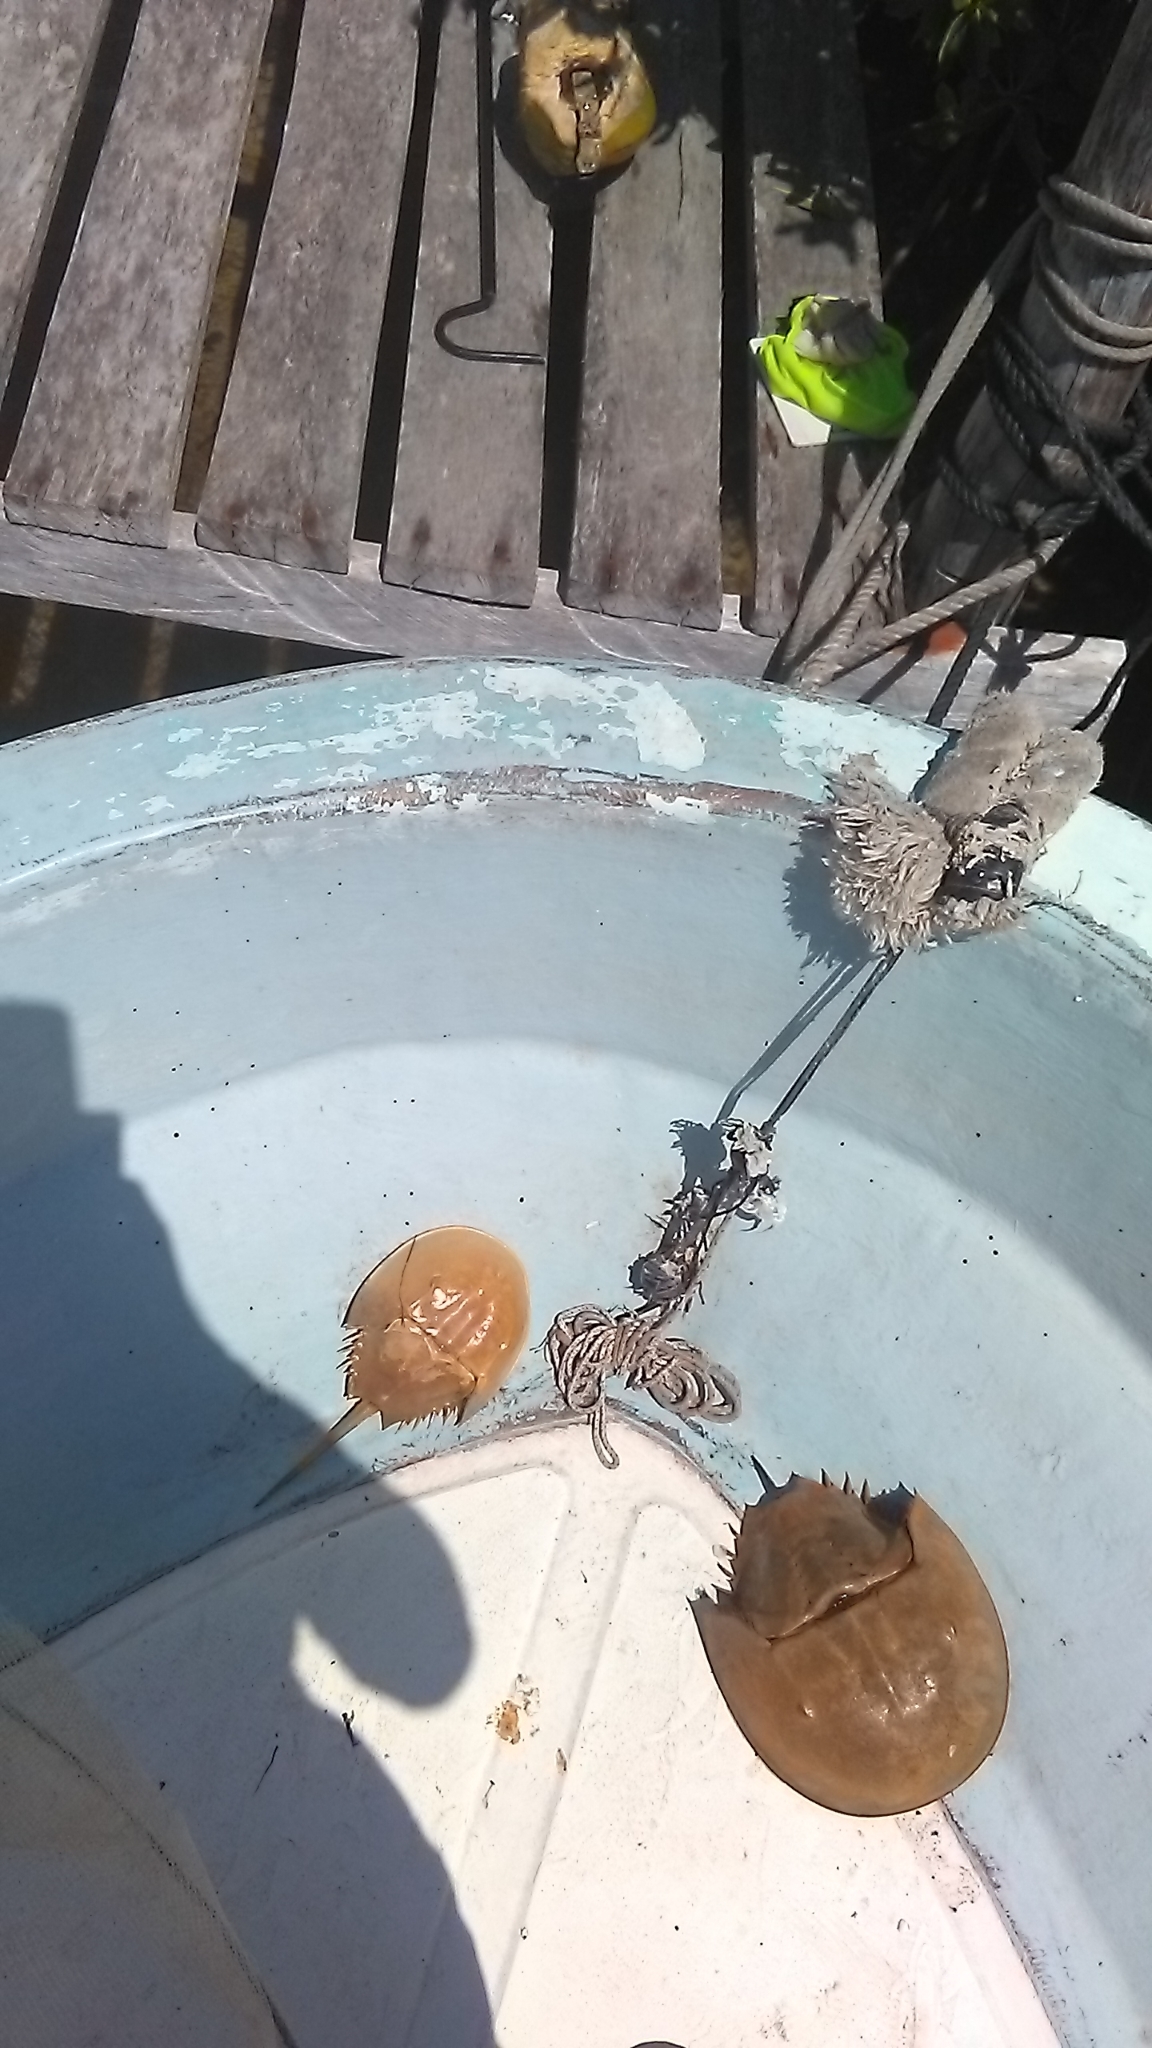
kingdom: Animalia
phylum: Arthropoda
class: Merostomata
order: Xiphosurida
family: Limulidae
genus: Limulus
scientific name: Limulus polyphemus
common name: Horseshoe crab
